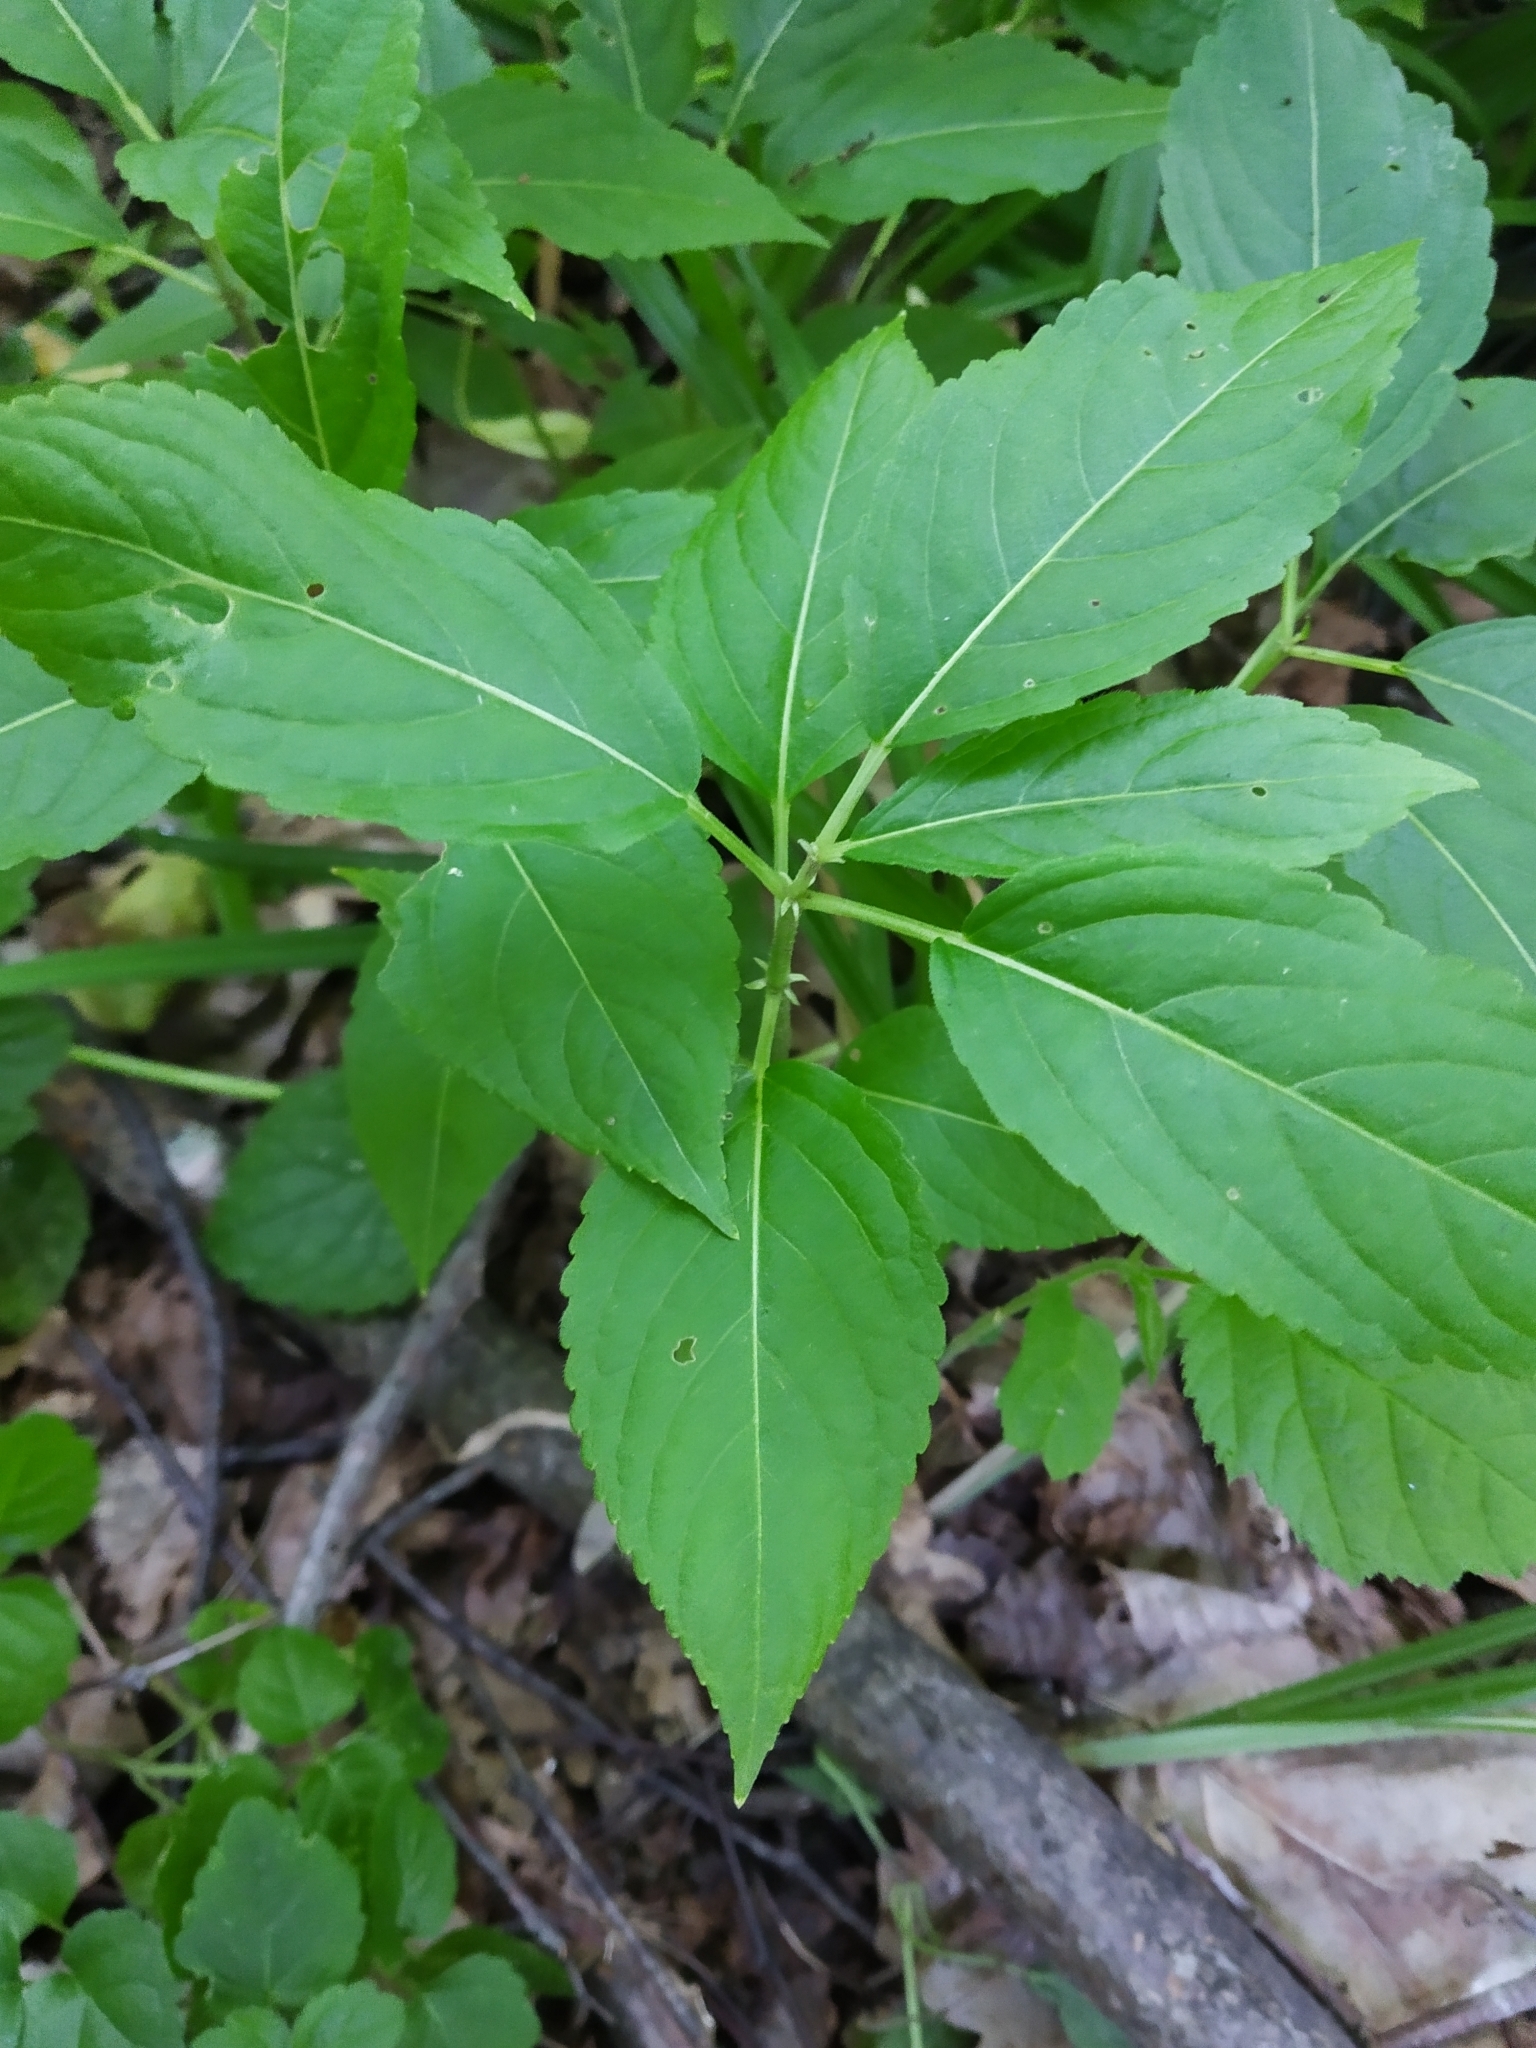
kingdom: Plantae
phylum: Tracheophyta
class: Magnoliopsida
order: Malpighiales
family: Euphorbiaceae
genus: Mercurialis
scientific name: Mercurialis perennis
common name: Dog mercury
